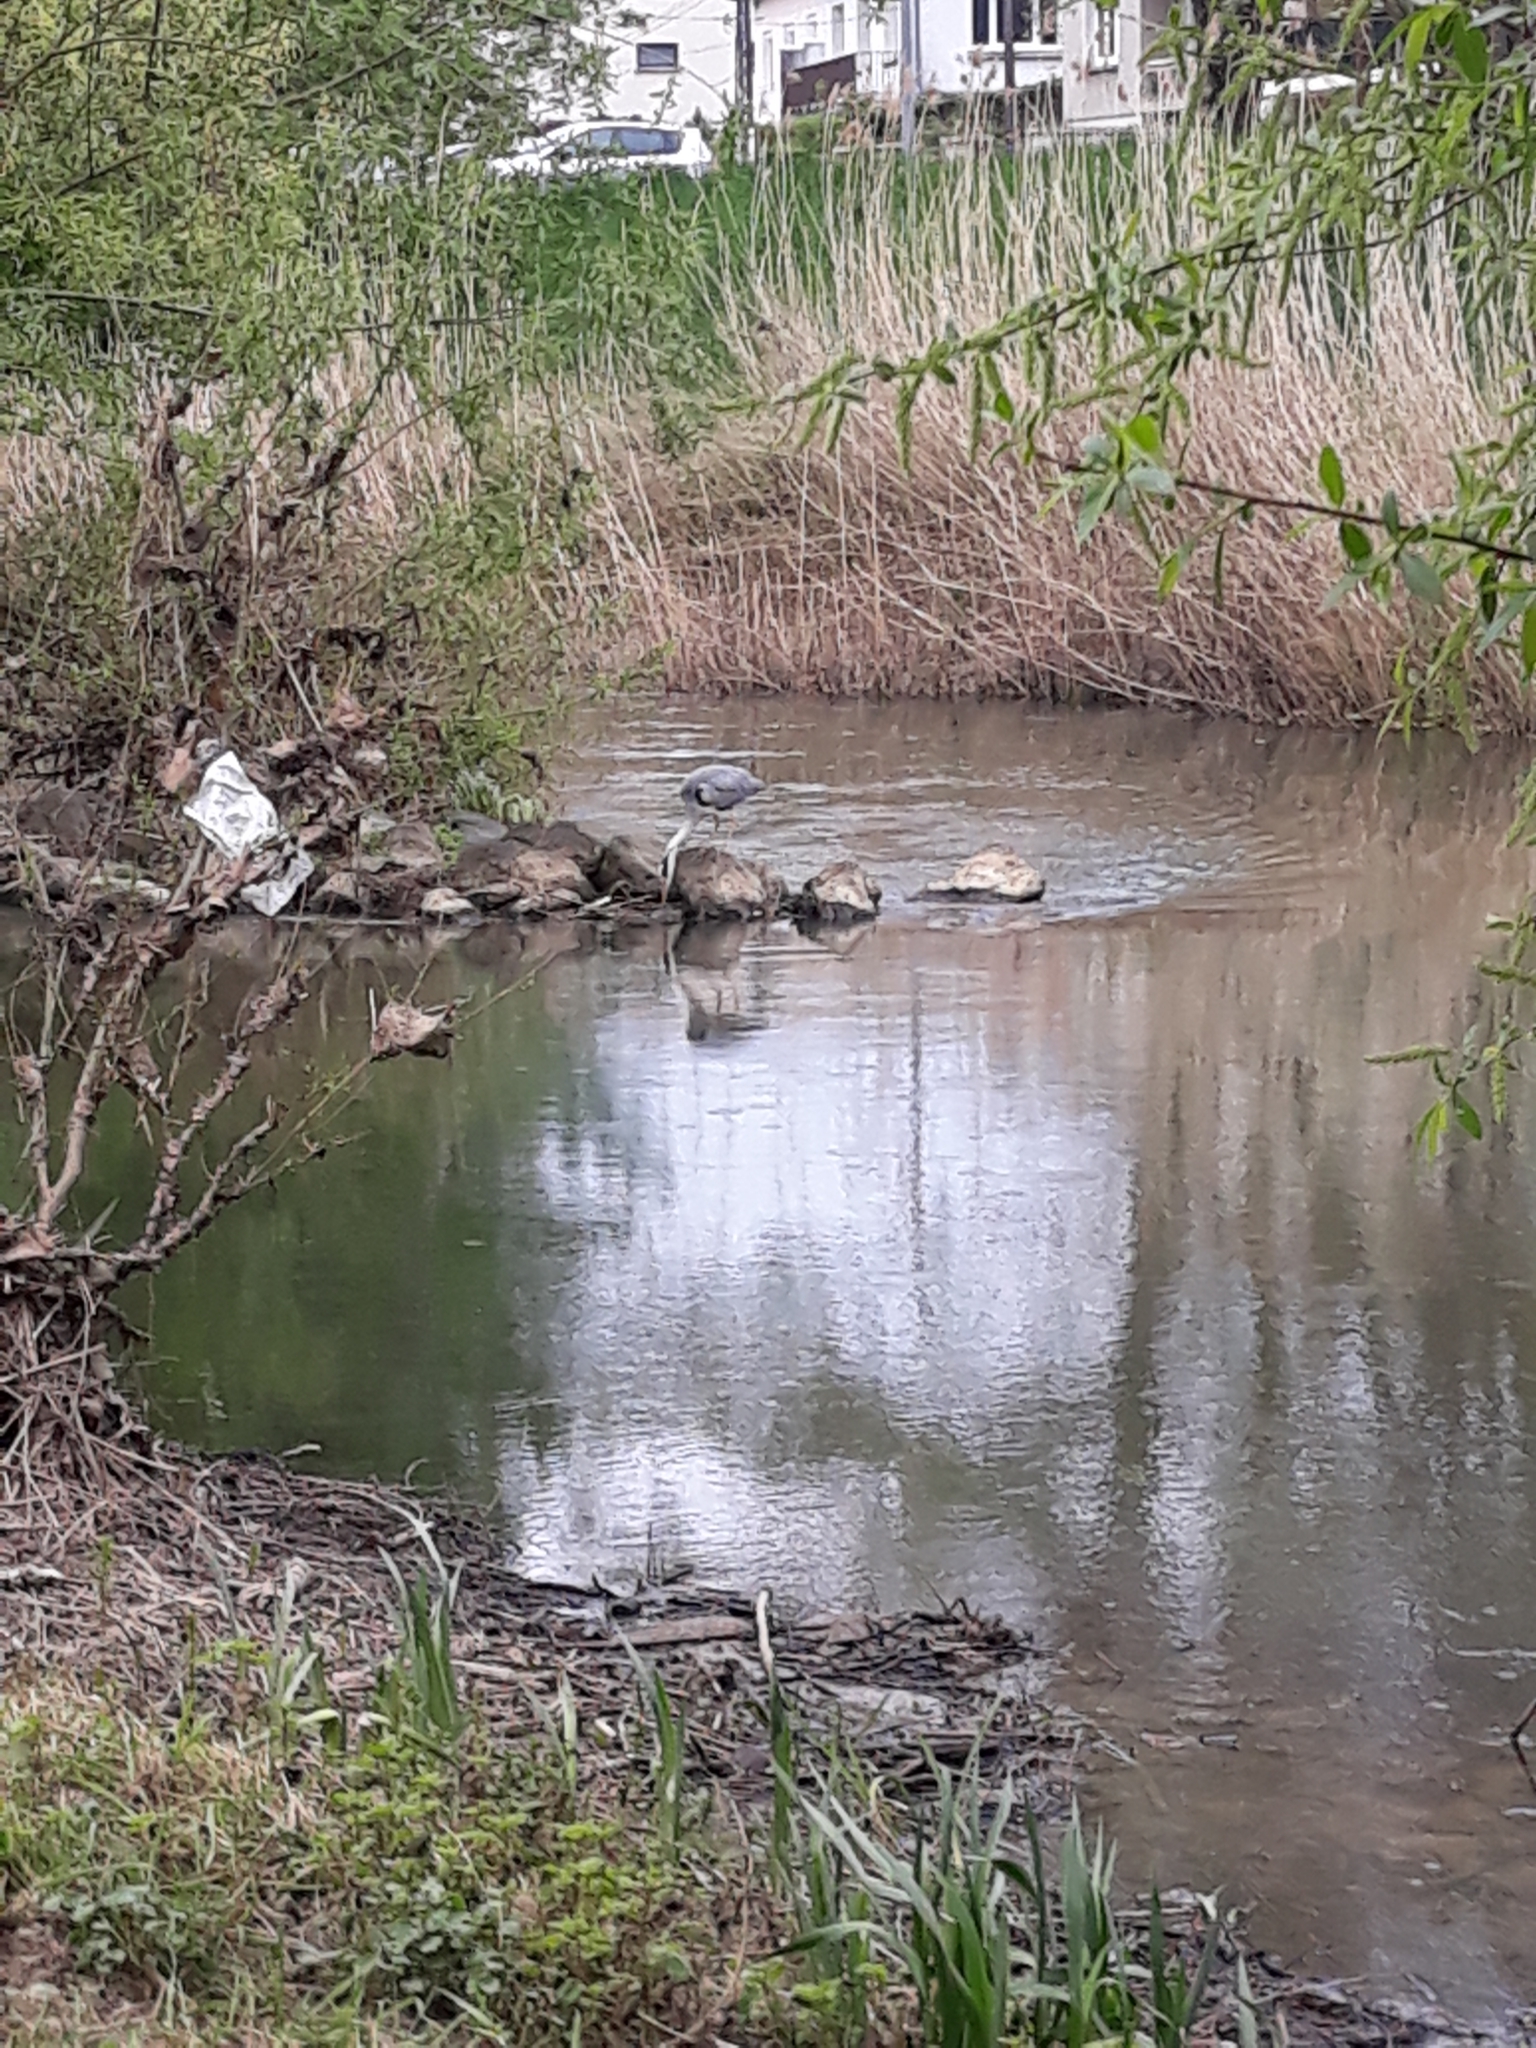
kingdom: Animalia
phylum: Chordata
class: Aves
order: Pelecaniformes
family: Ardeidae
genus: Ardea
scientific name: Ardea cinerea
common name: Grey heron
